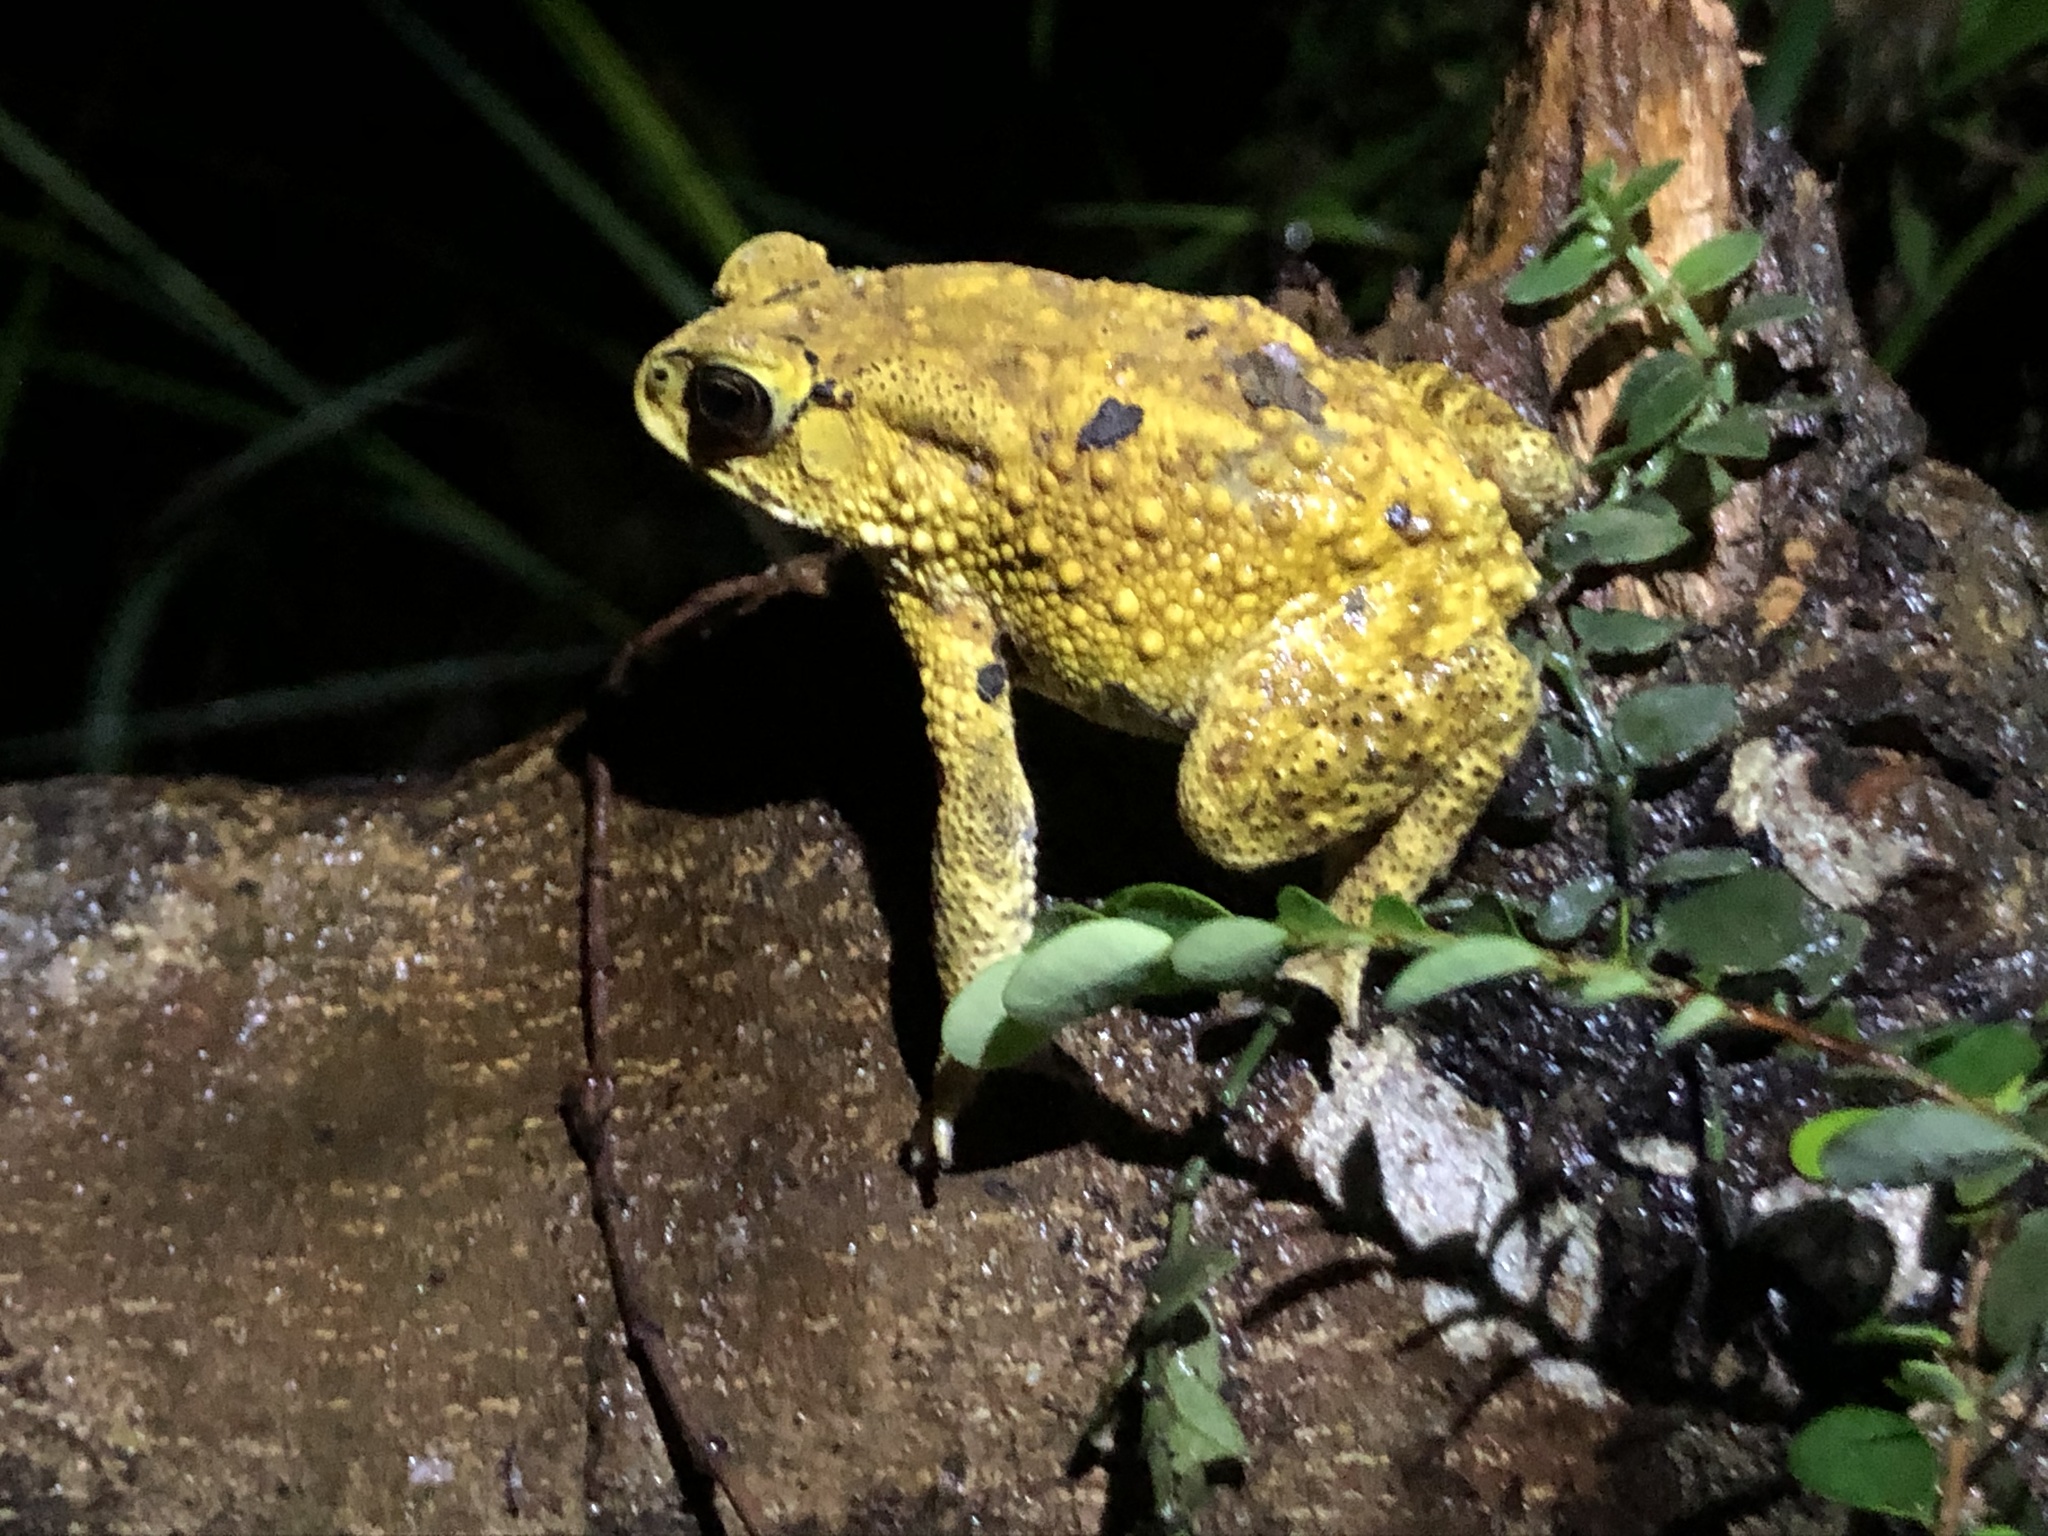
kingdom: Animalia
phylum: Chordata
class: Amphibia
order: Anura
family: Bufonidae
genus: Duttaphrynus
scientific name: Duttaphrynus melanostictus
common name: Common sunda toad
